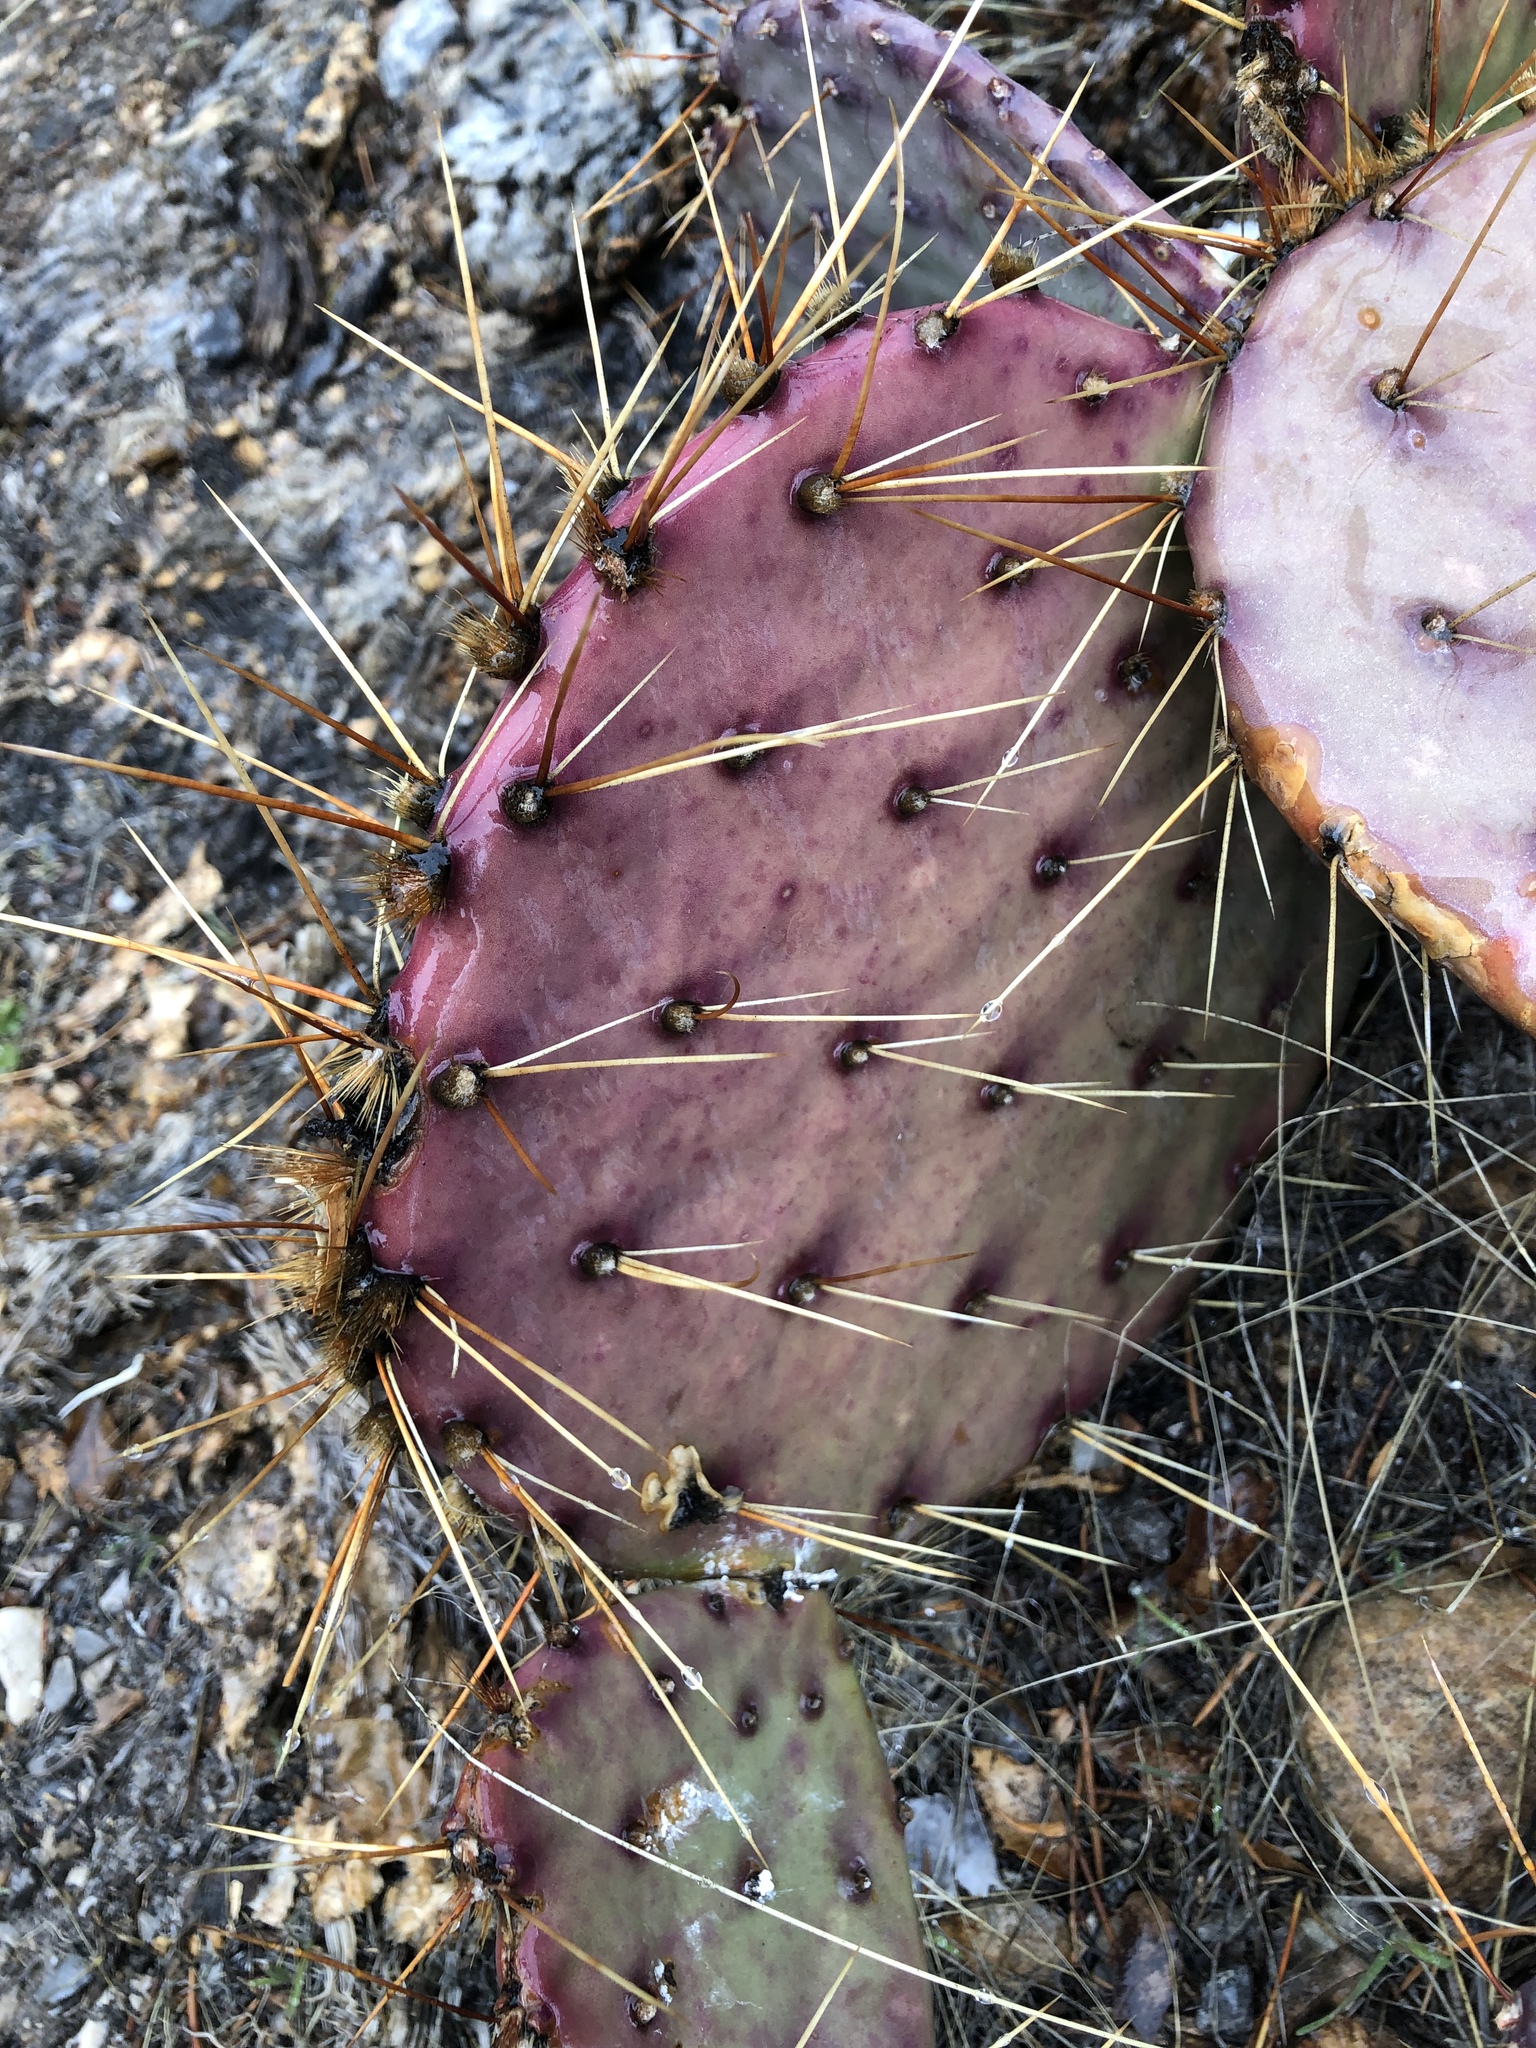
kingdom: Plantae
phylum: Tracheophyta
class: Magnoliopsida
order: Caryophyllales
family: Cactaceae
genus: Opuntia
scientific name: Opuntia phaeacantha
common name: New mexico prickly-pear
